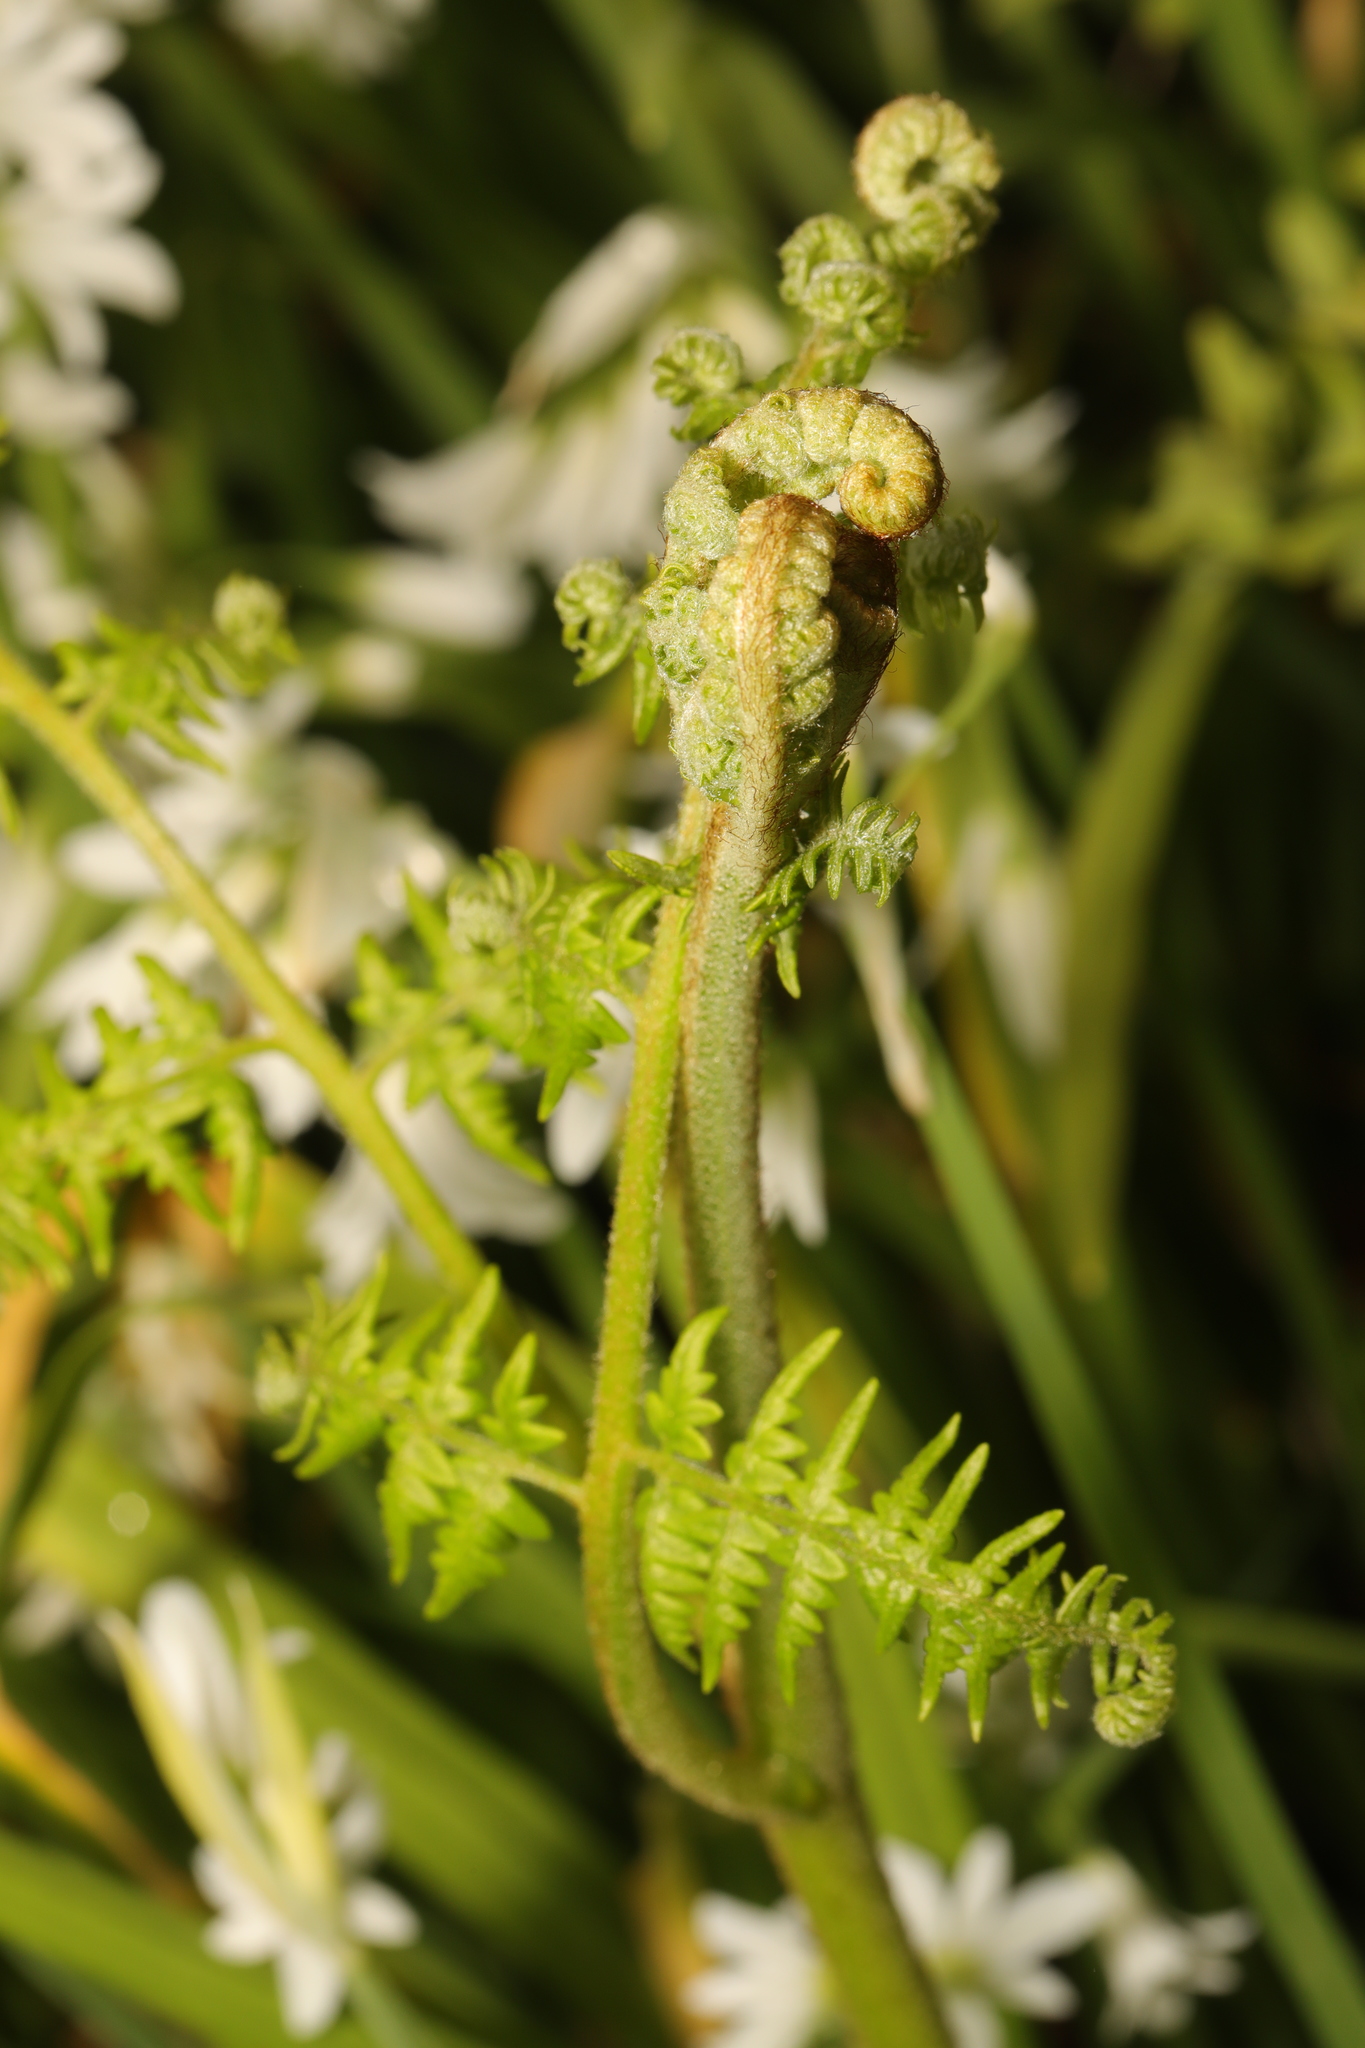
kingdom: Plantae
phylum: Tracheophyta
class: Polypodiopsida
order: Polypodiales
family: Dennstaedtiaceae
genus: Pteridium
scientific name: Pteridium aquilinum
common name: Bracken
